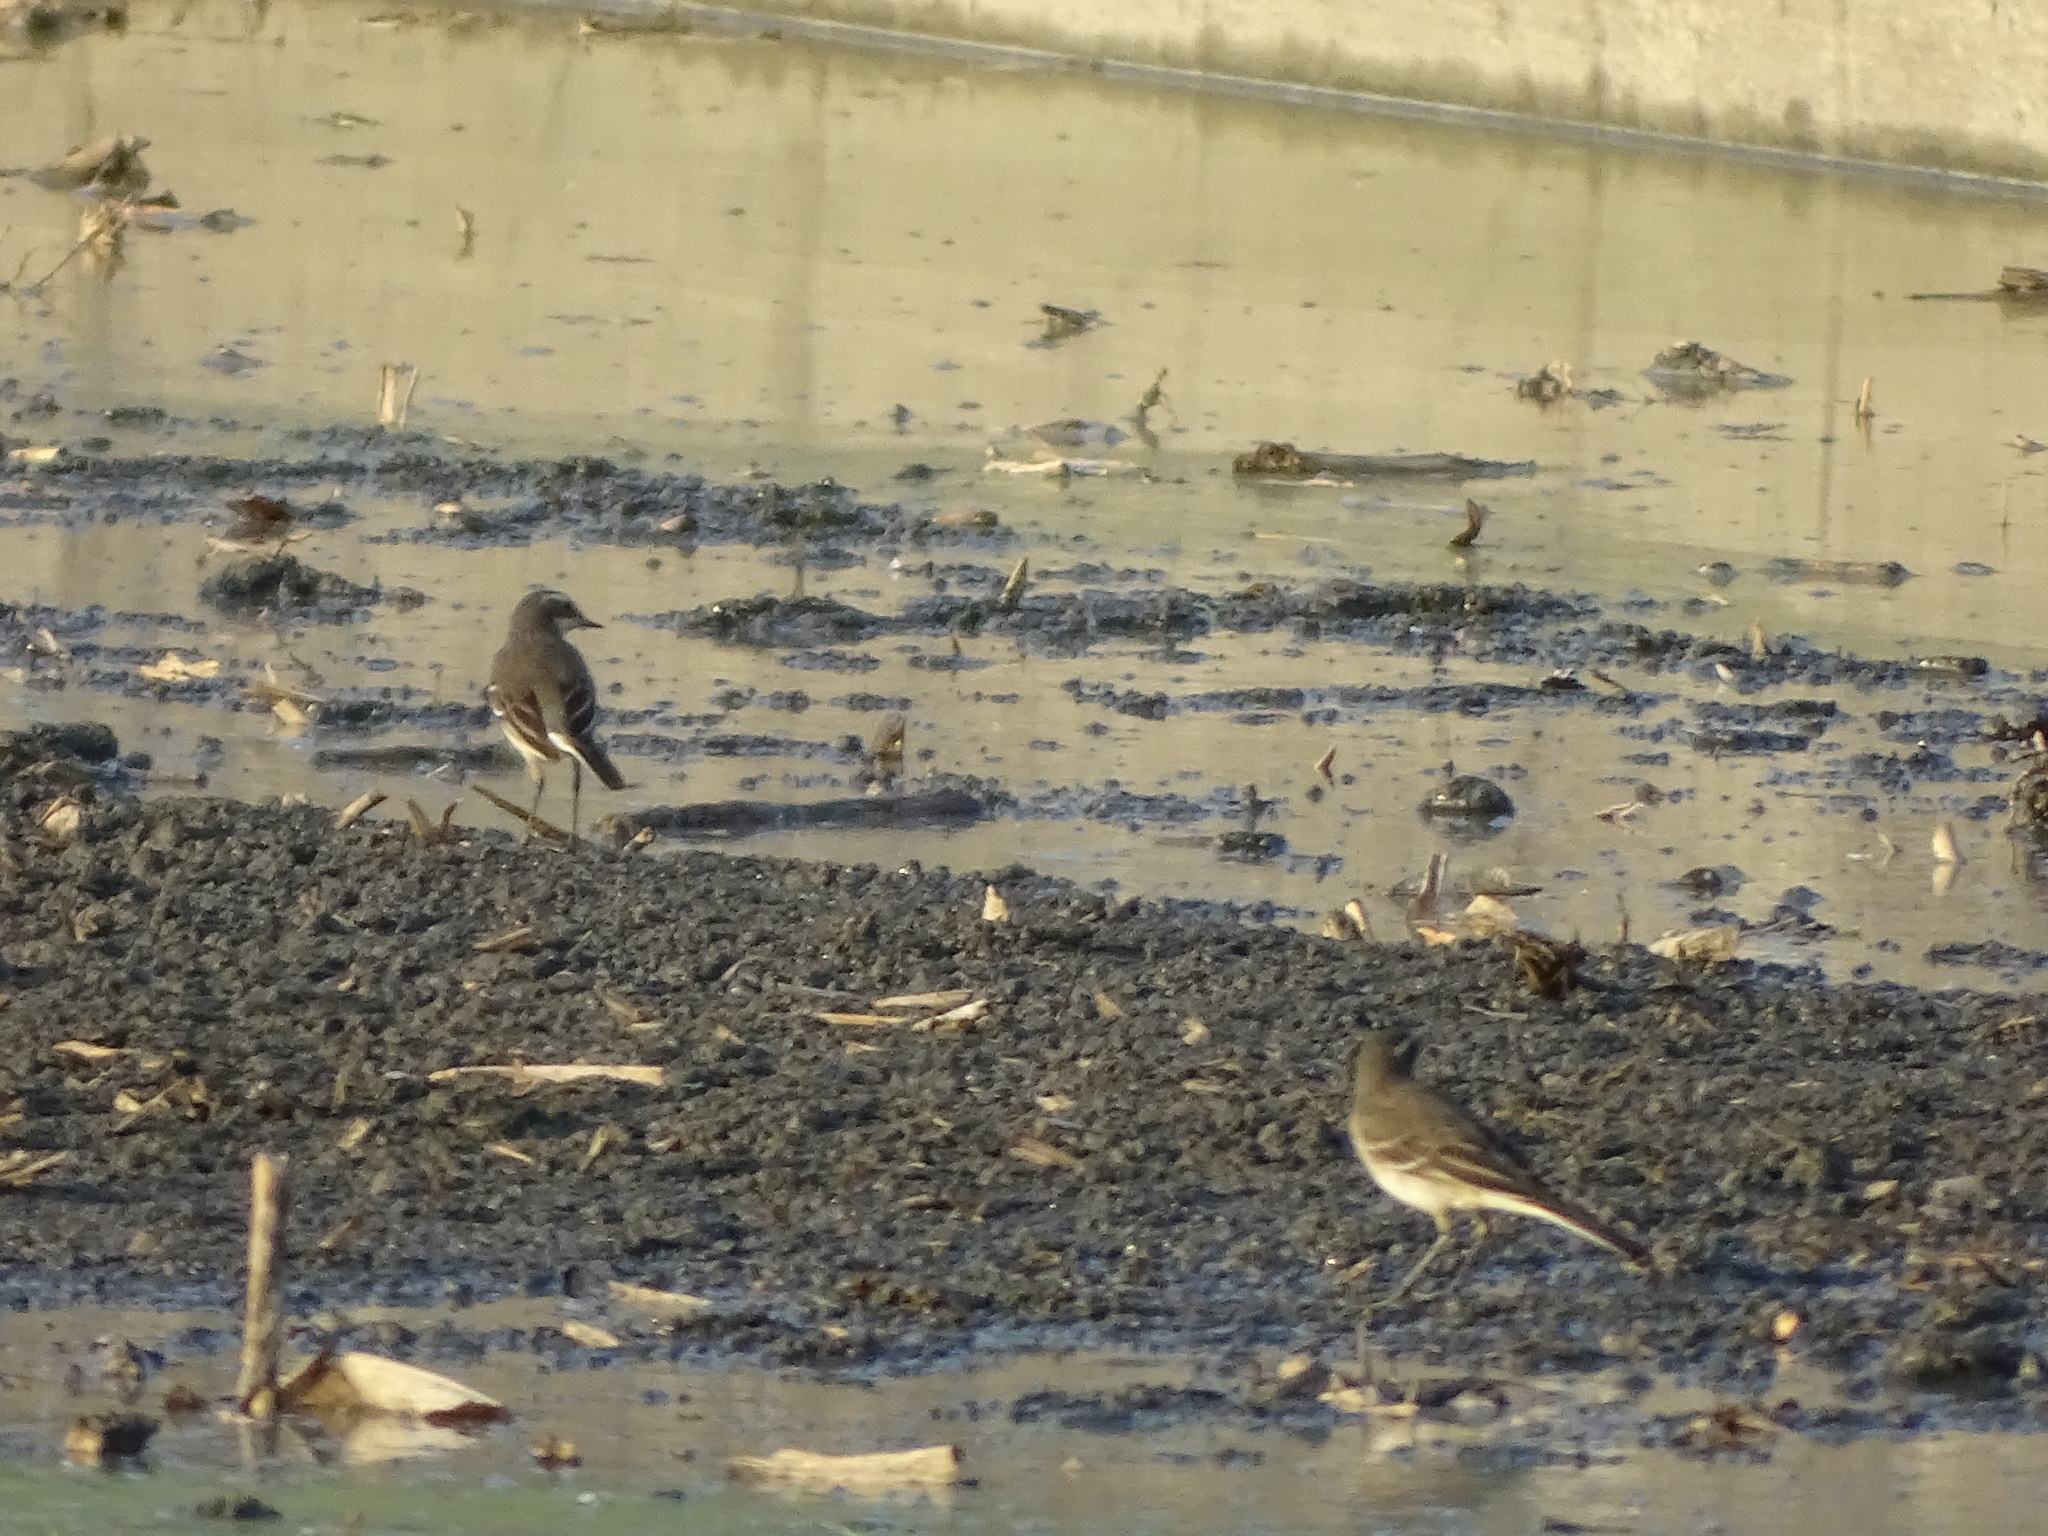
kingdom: Animalia
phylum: Chordata
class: Aves
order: Passeriformes
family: Motacillidae
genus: Motacilla
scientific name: Motacilla tschutschensis
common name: Eastern yellow wagtail
